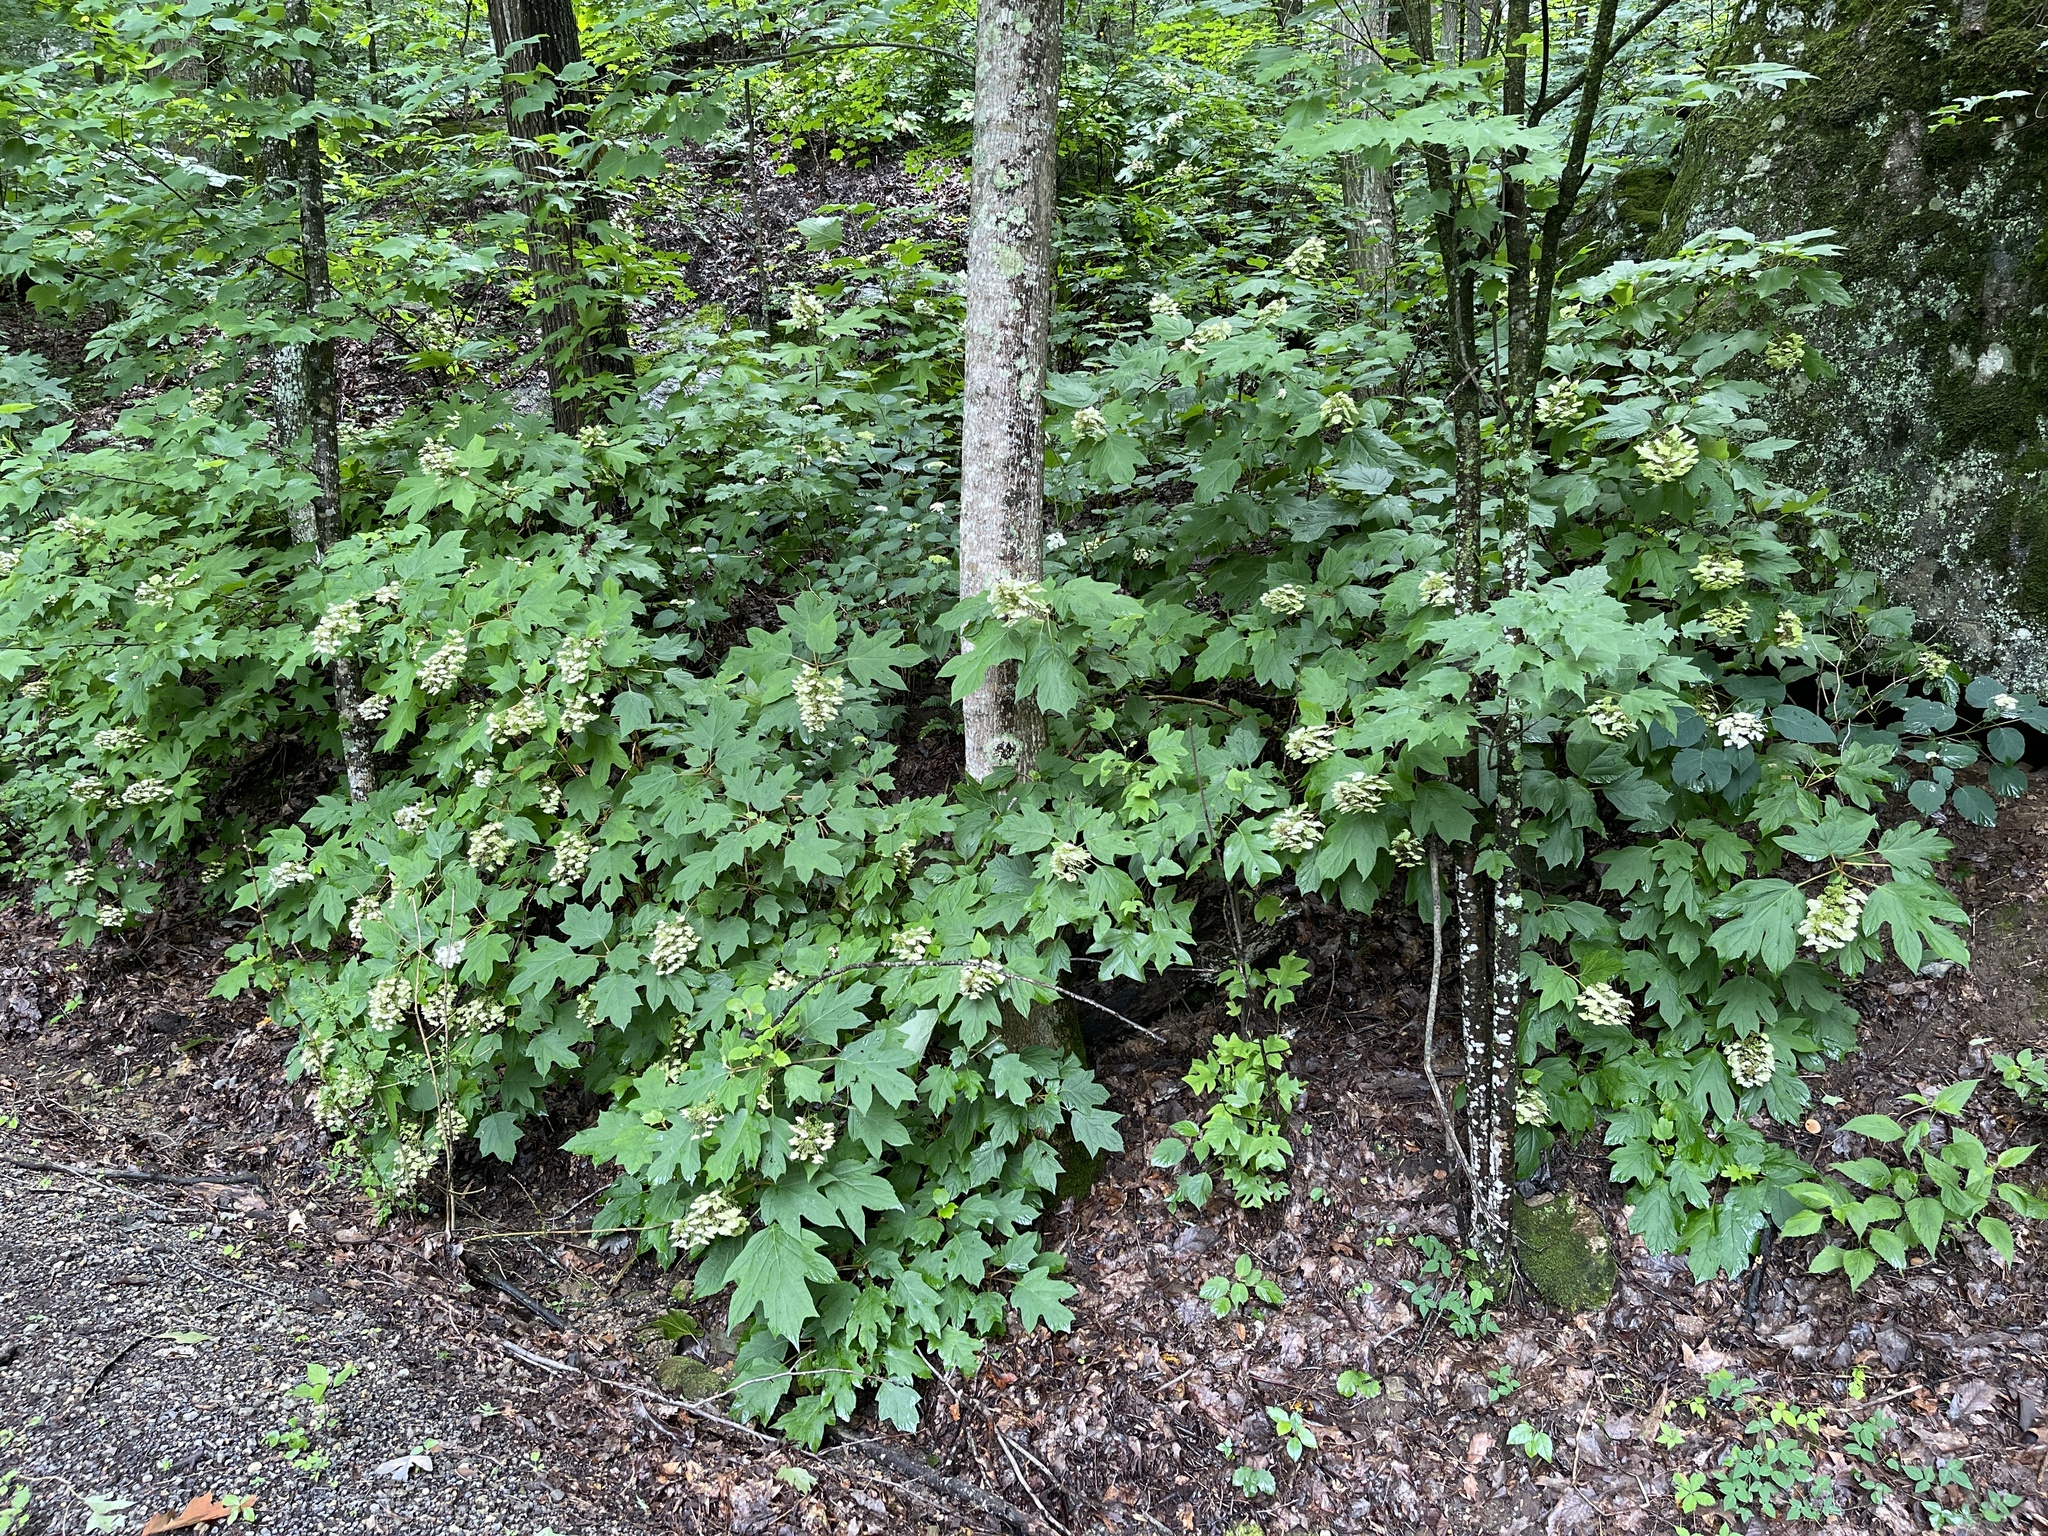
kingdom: Plantae
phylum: Tracheophyta
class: Magnoliopsida
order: Cornales
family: Hydrangeaceae
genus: Hydrangea
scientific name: Hydrangea quercifolia
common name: Oak-leaf hydrangea
